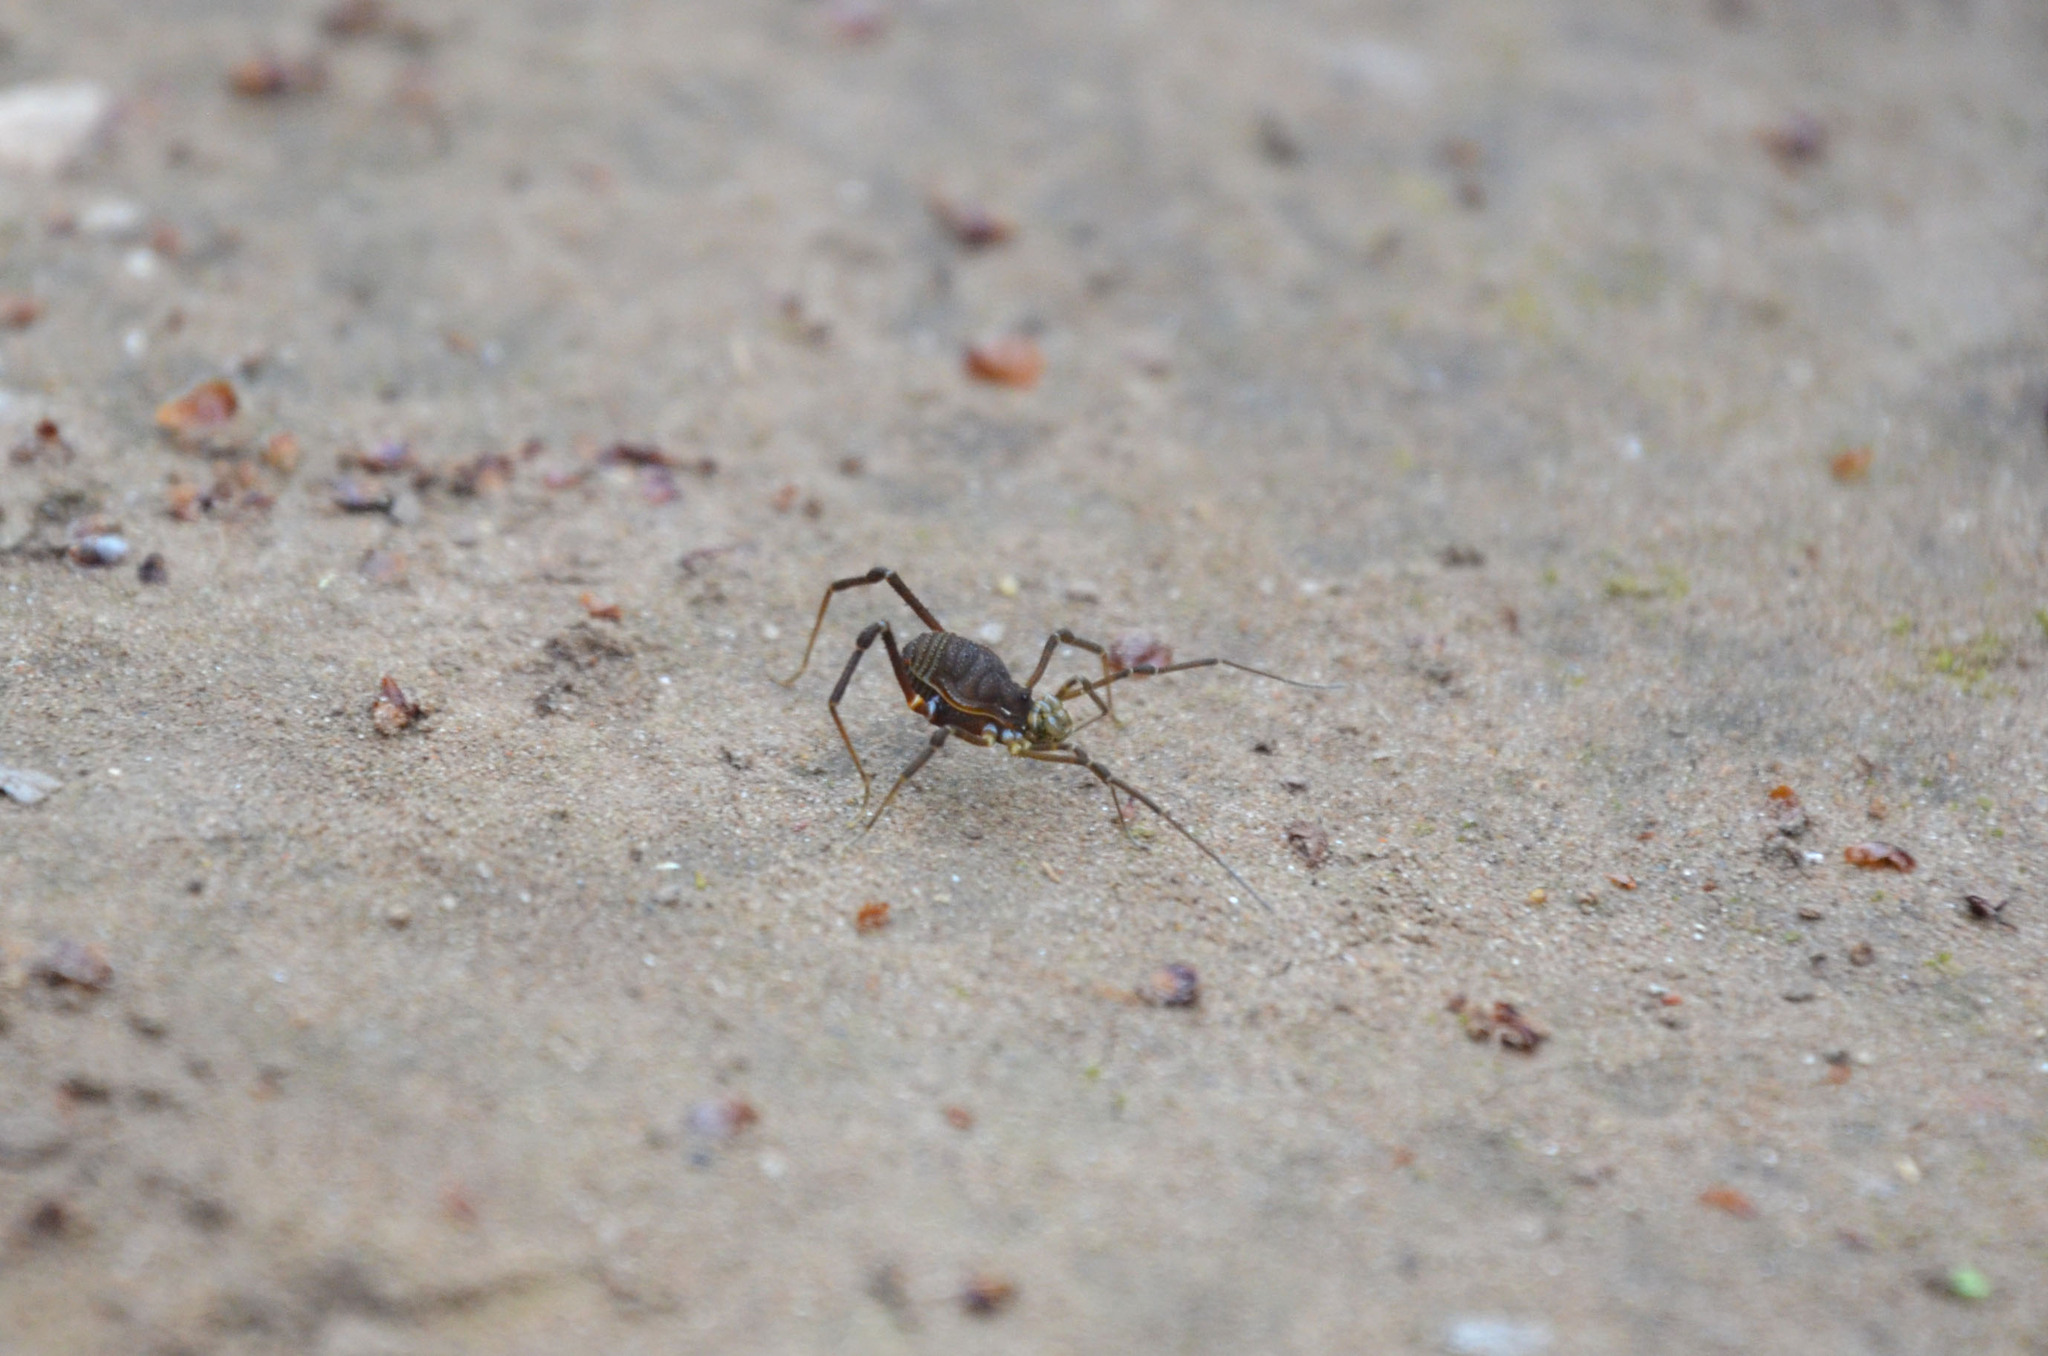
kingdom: Animalia
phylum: Arthropoda
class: Arachnida
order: Opiliones
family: Gonyleptidae
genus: Acanthopachylus
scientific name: Acanthopachylus robustus
